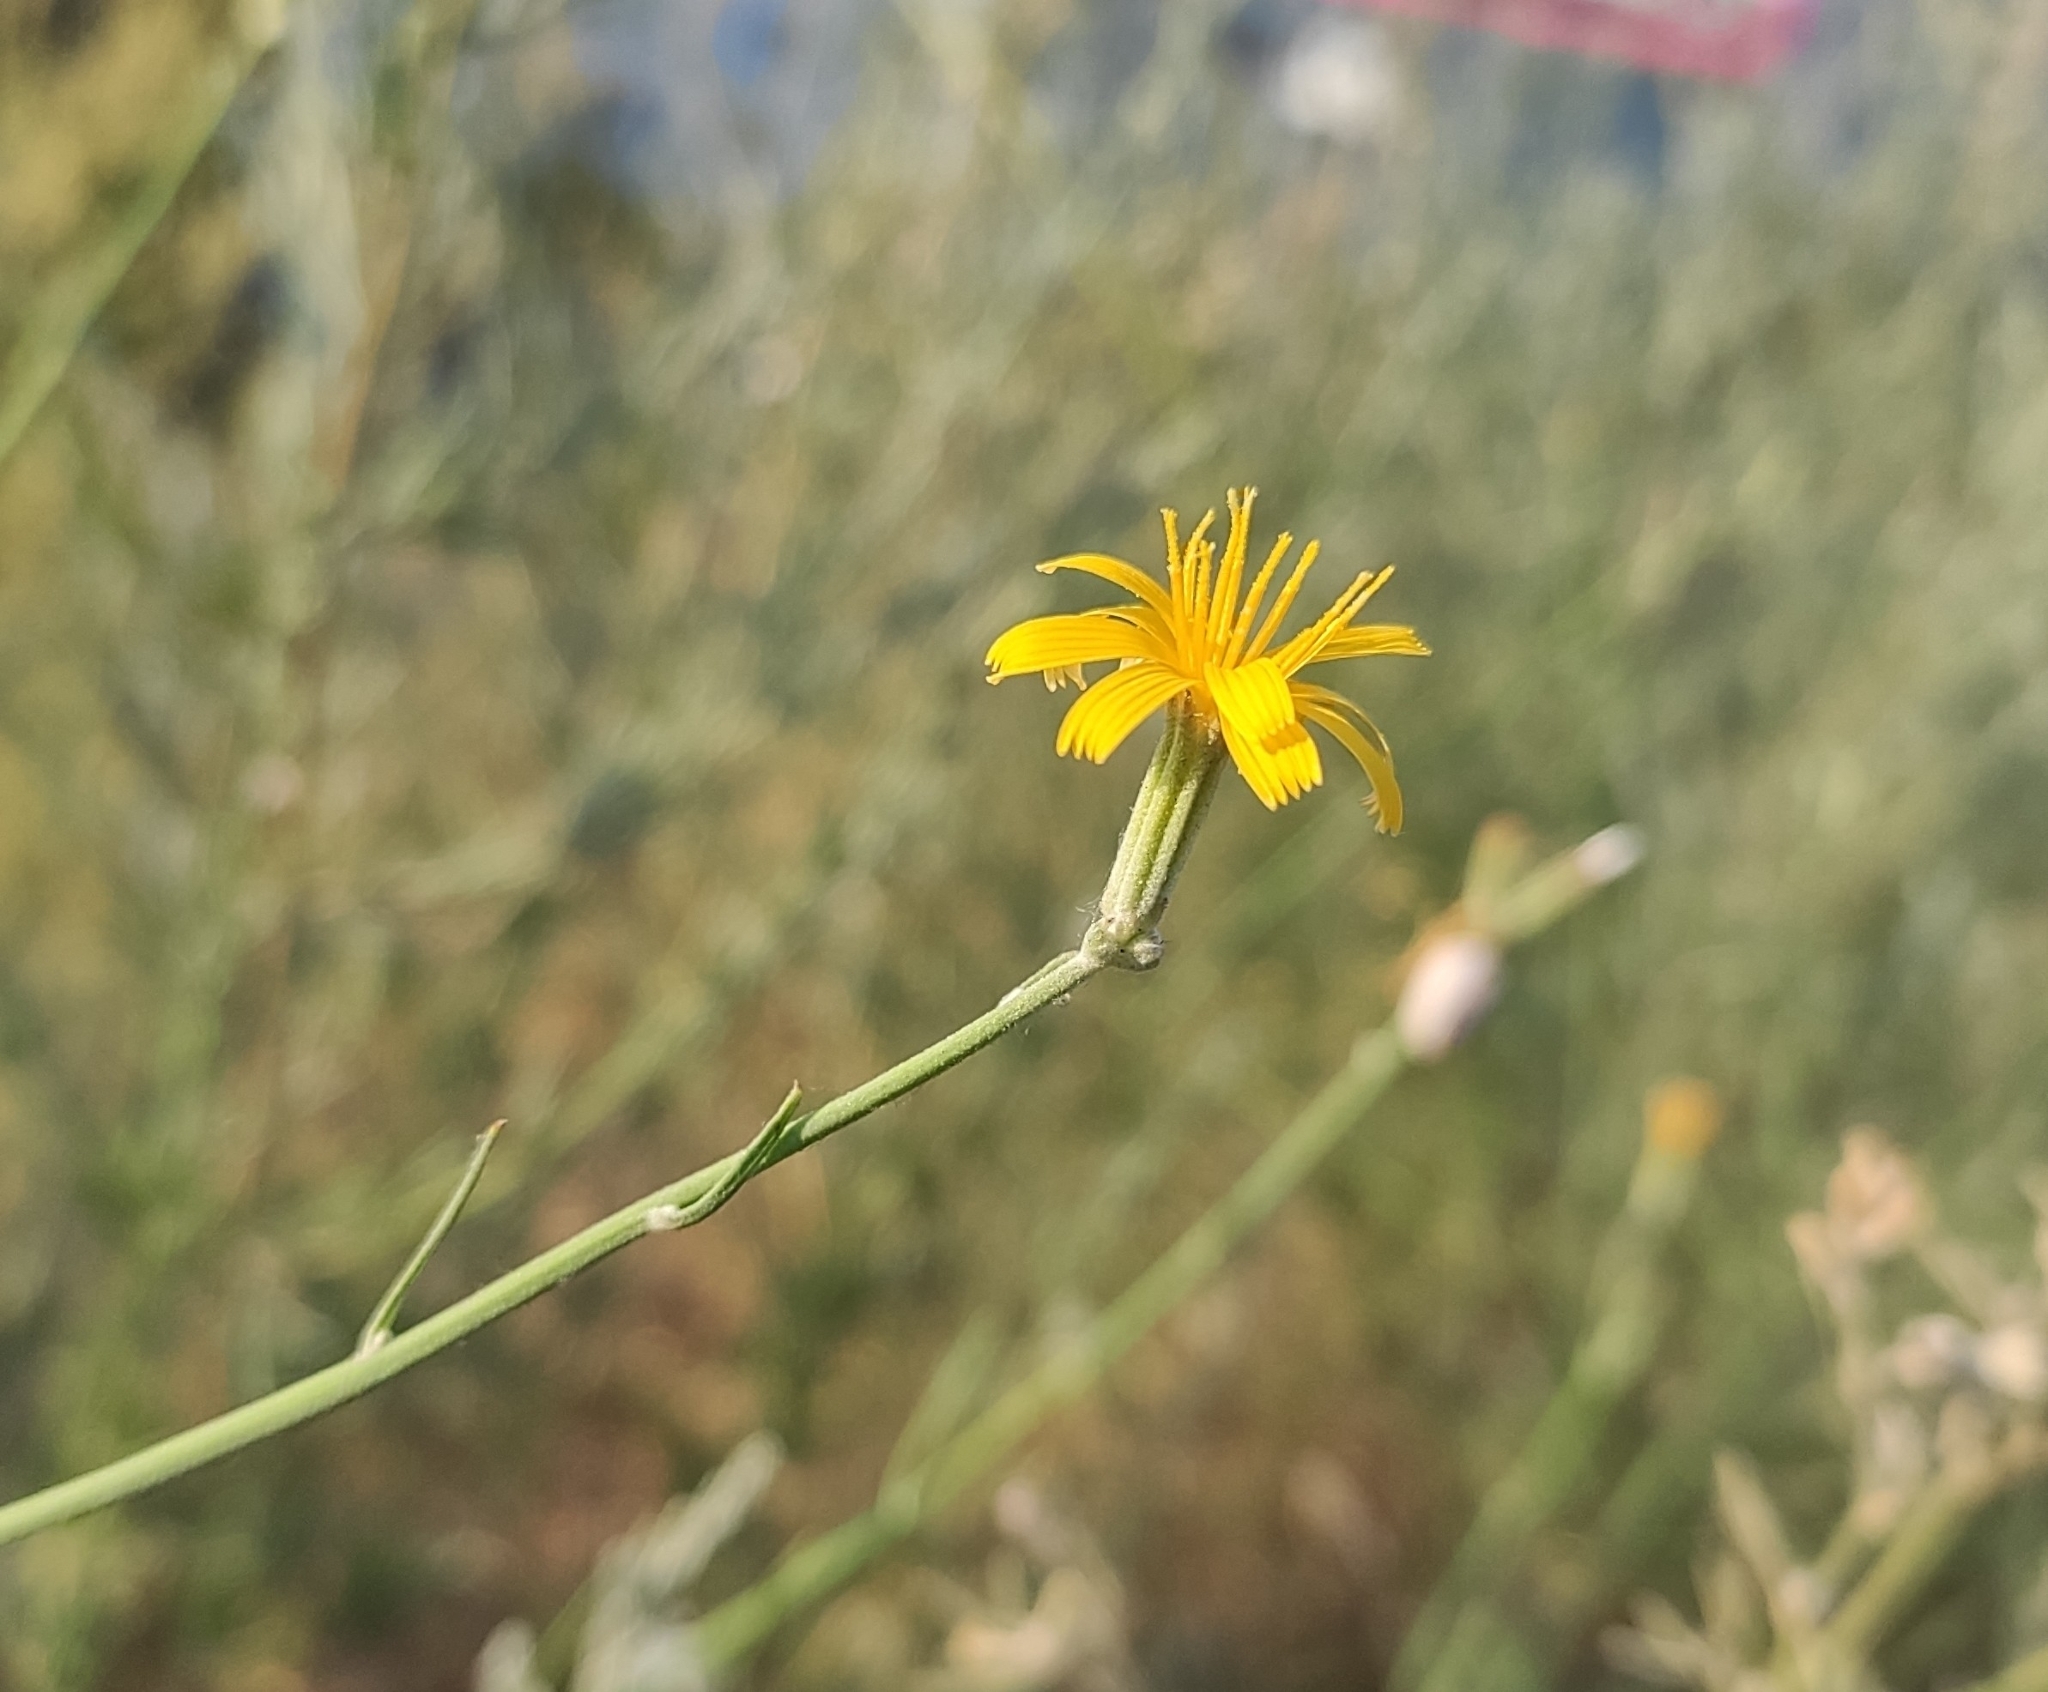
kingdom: Plantae
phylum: Tracheophyta
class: Magnoliopsida
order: Asterales
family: Asteraceae
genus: Chondrilla
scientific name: Chondrilla juncea
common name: Skeleton weed
